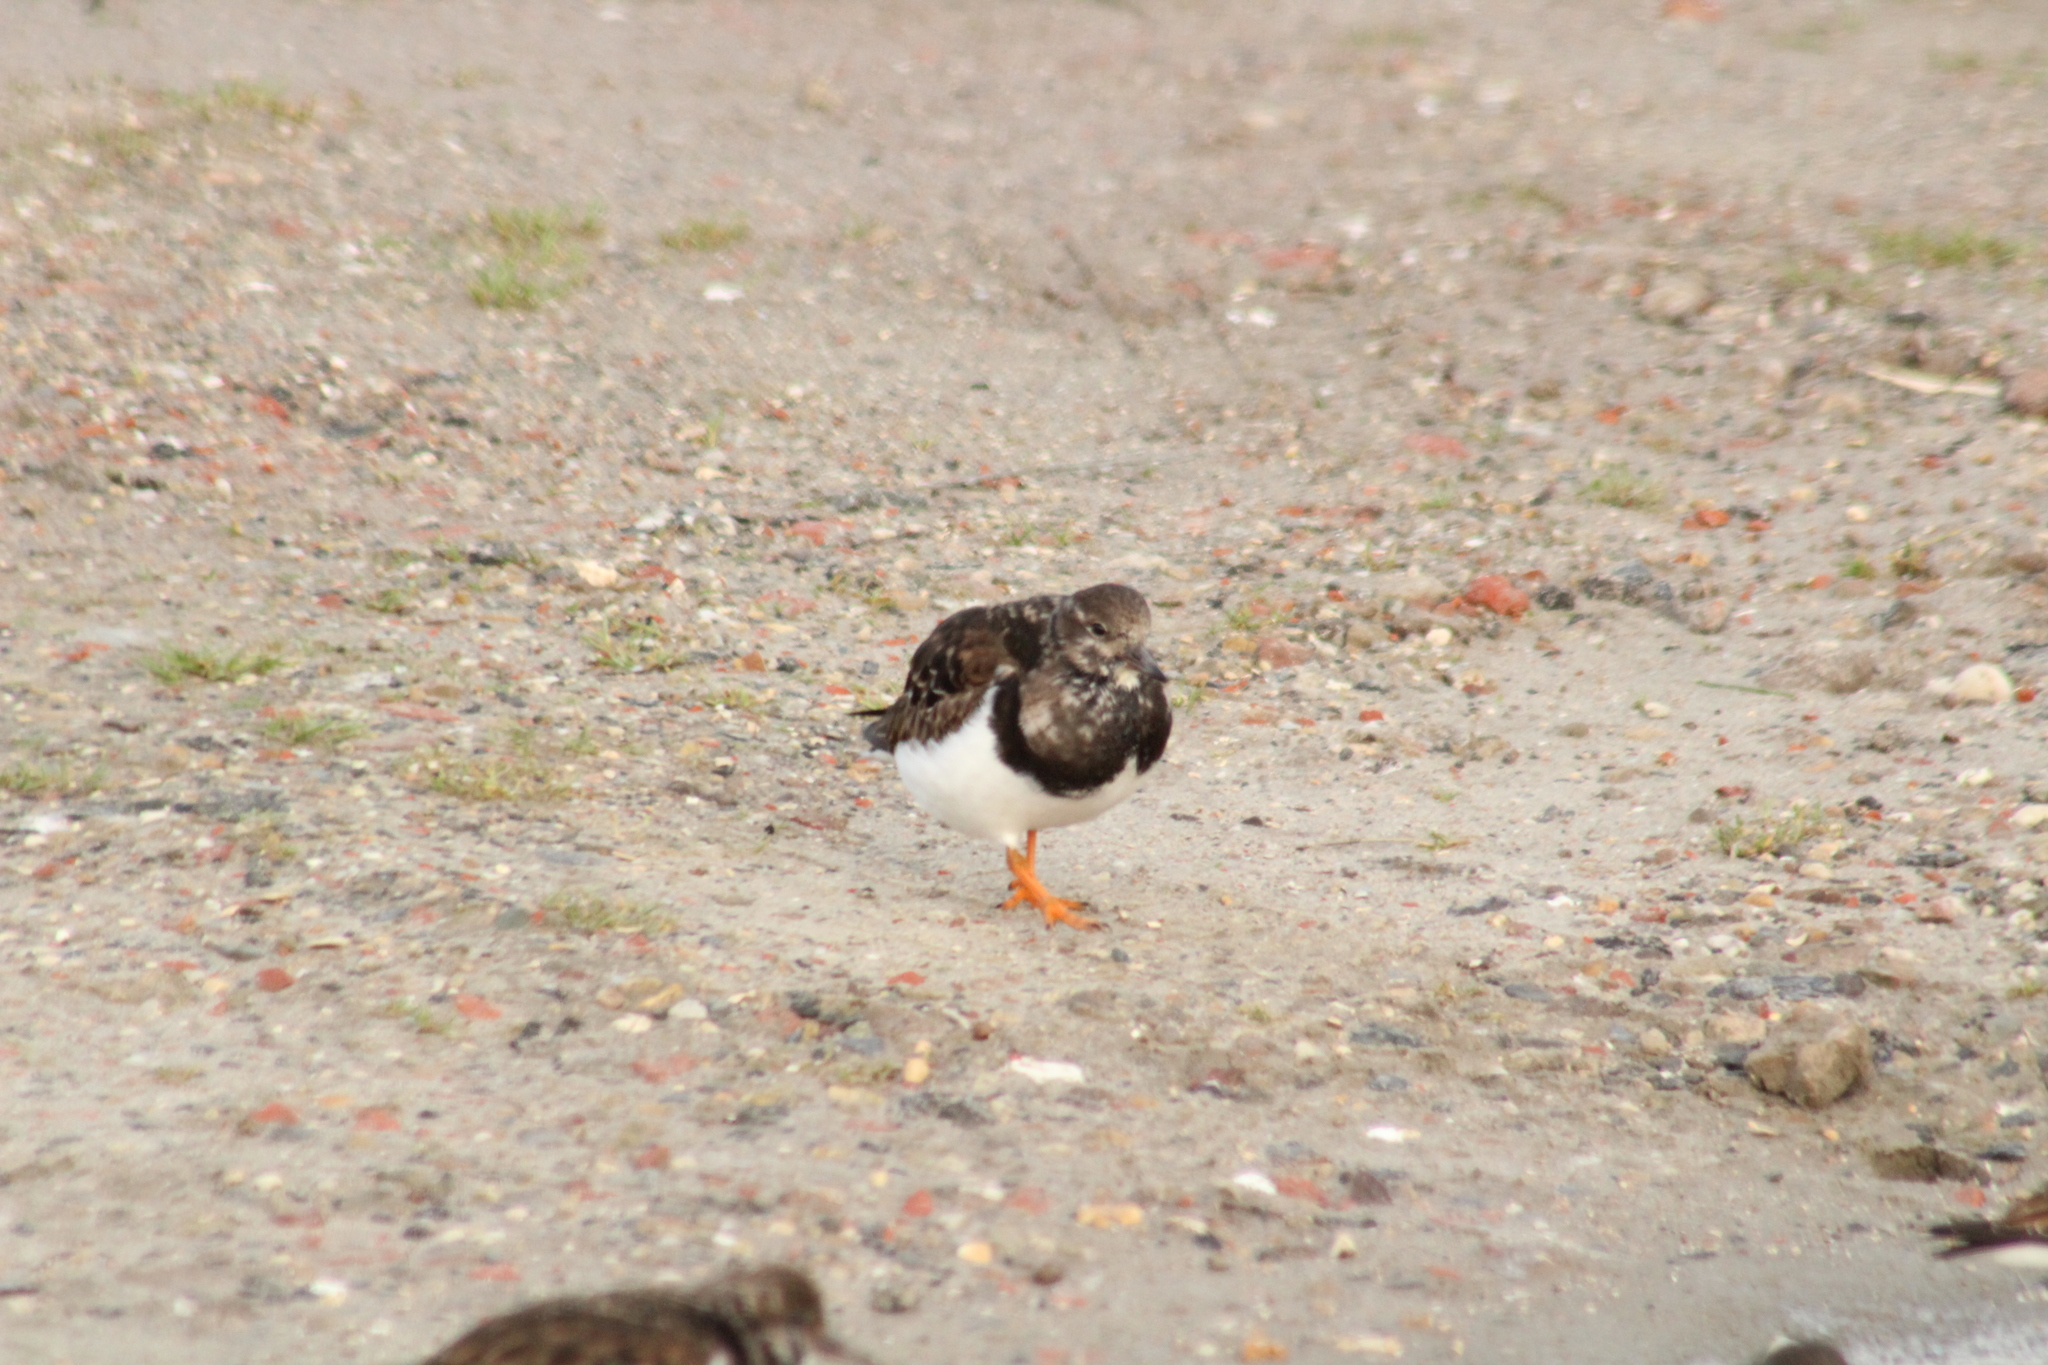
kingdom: Animalia
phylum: Chordata
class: Aves
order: Charadriiformes
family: Scolopacidae
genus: Arenaria
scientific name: Arenaria interpres
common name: Ruddy turnstone
